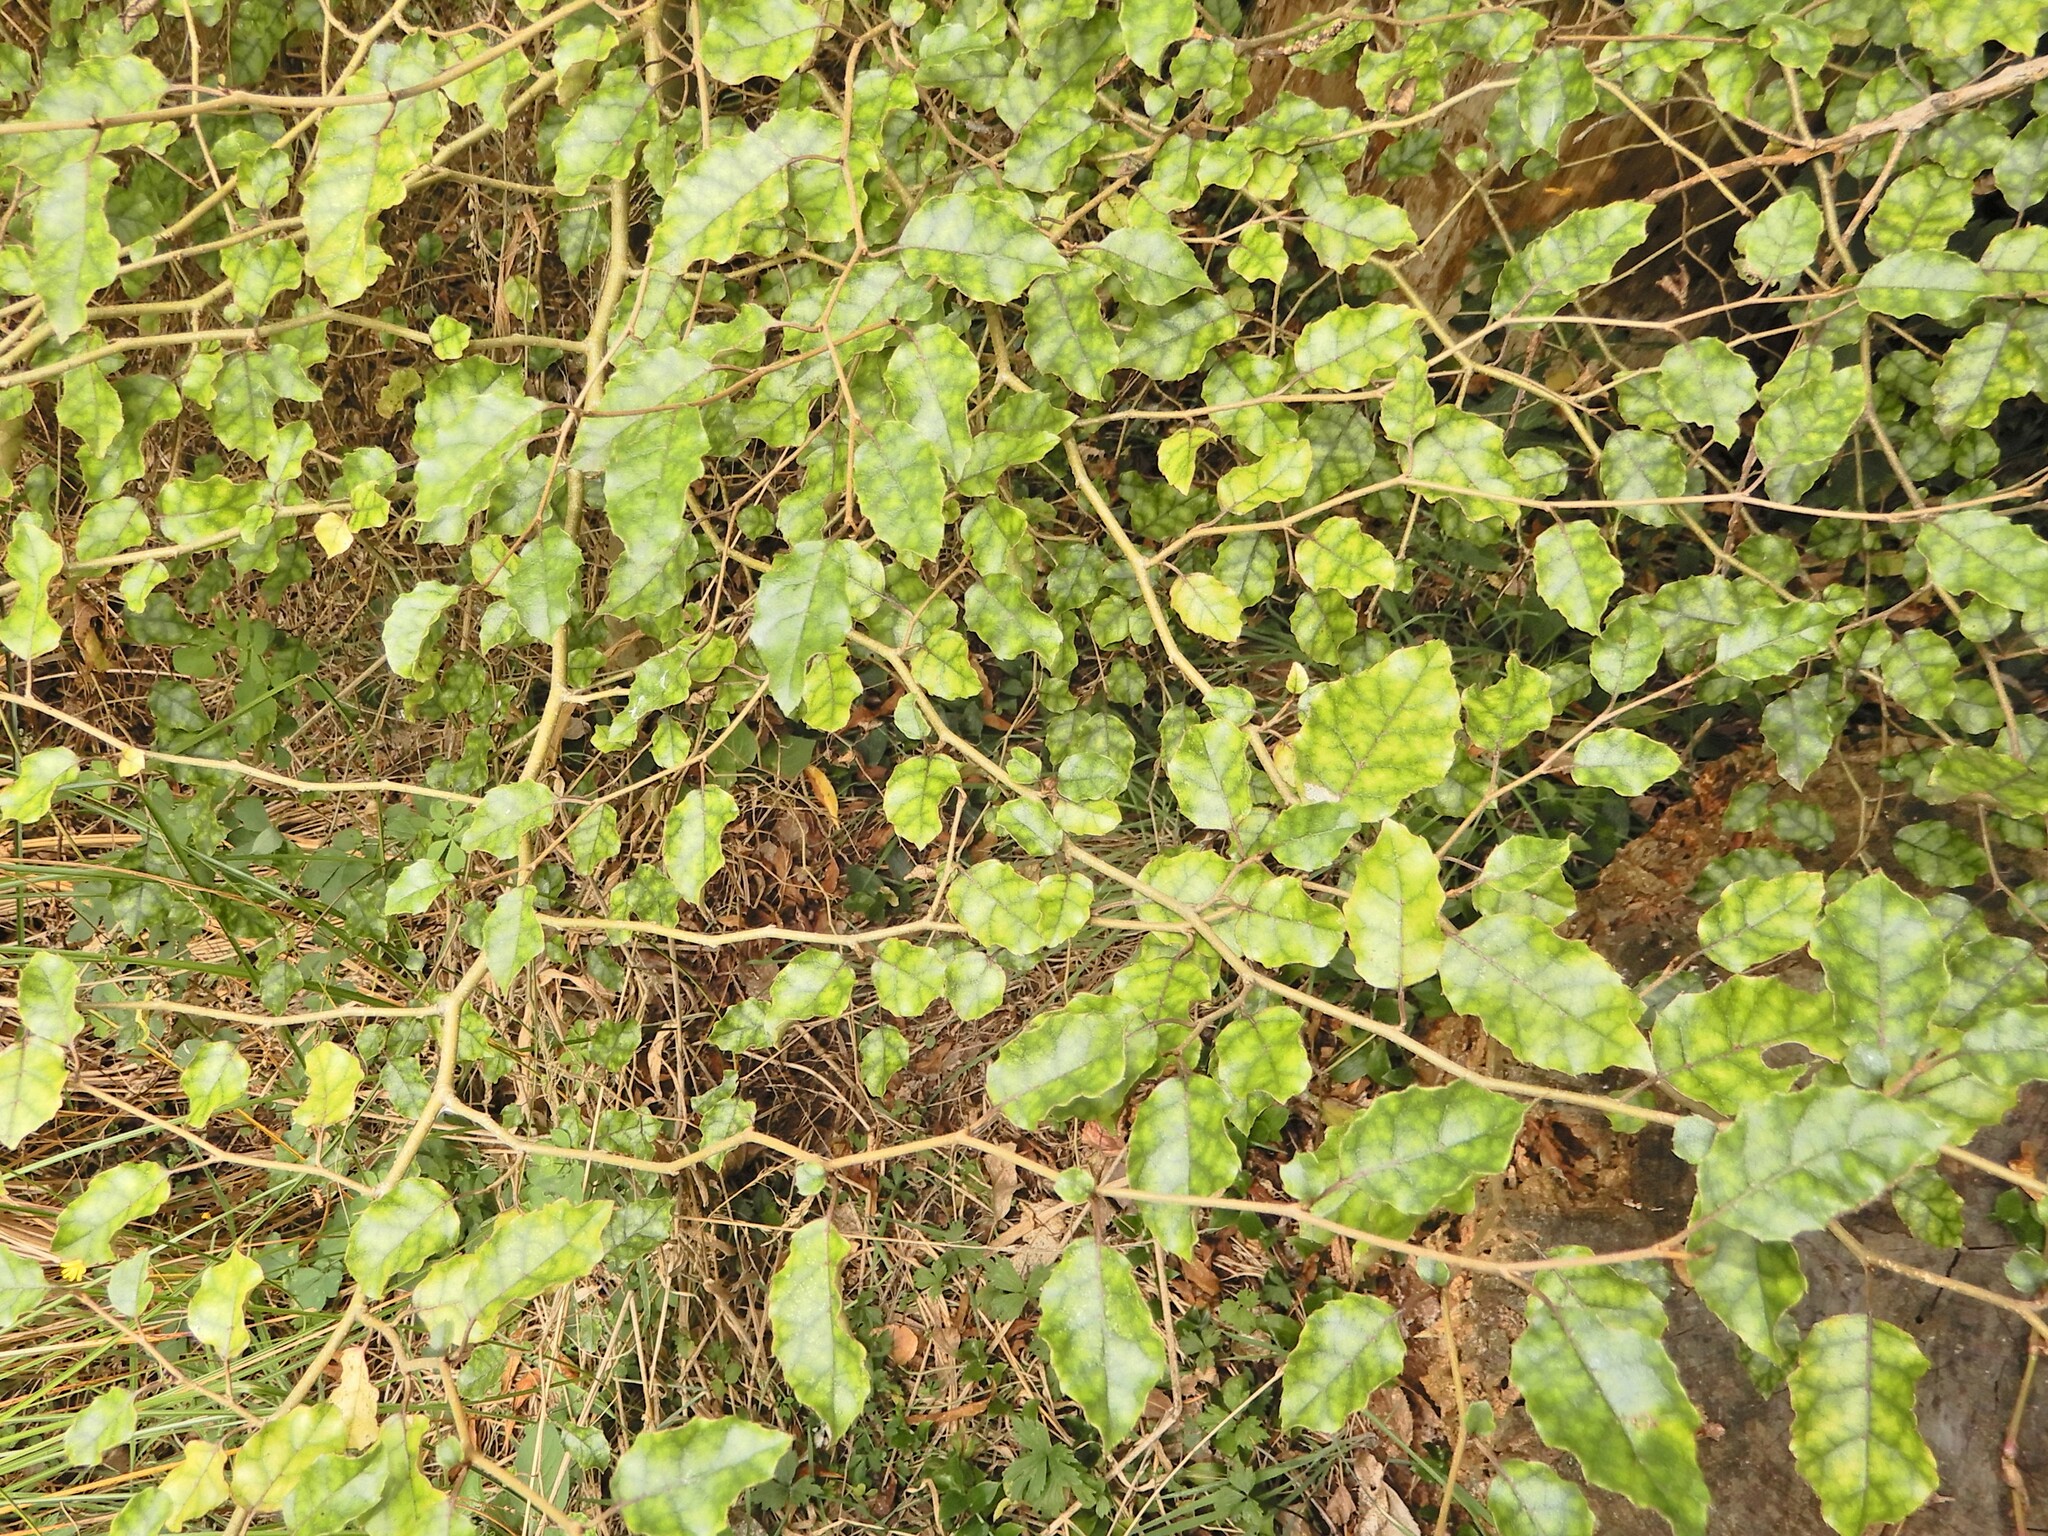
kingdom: Plantae
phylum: Tracheophyta
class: Magnoliopsida
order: Asterales
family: Rousseaceae
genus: Carpodetus
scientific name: Carpodetus serratus
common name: White mapau
